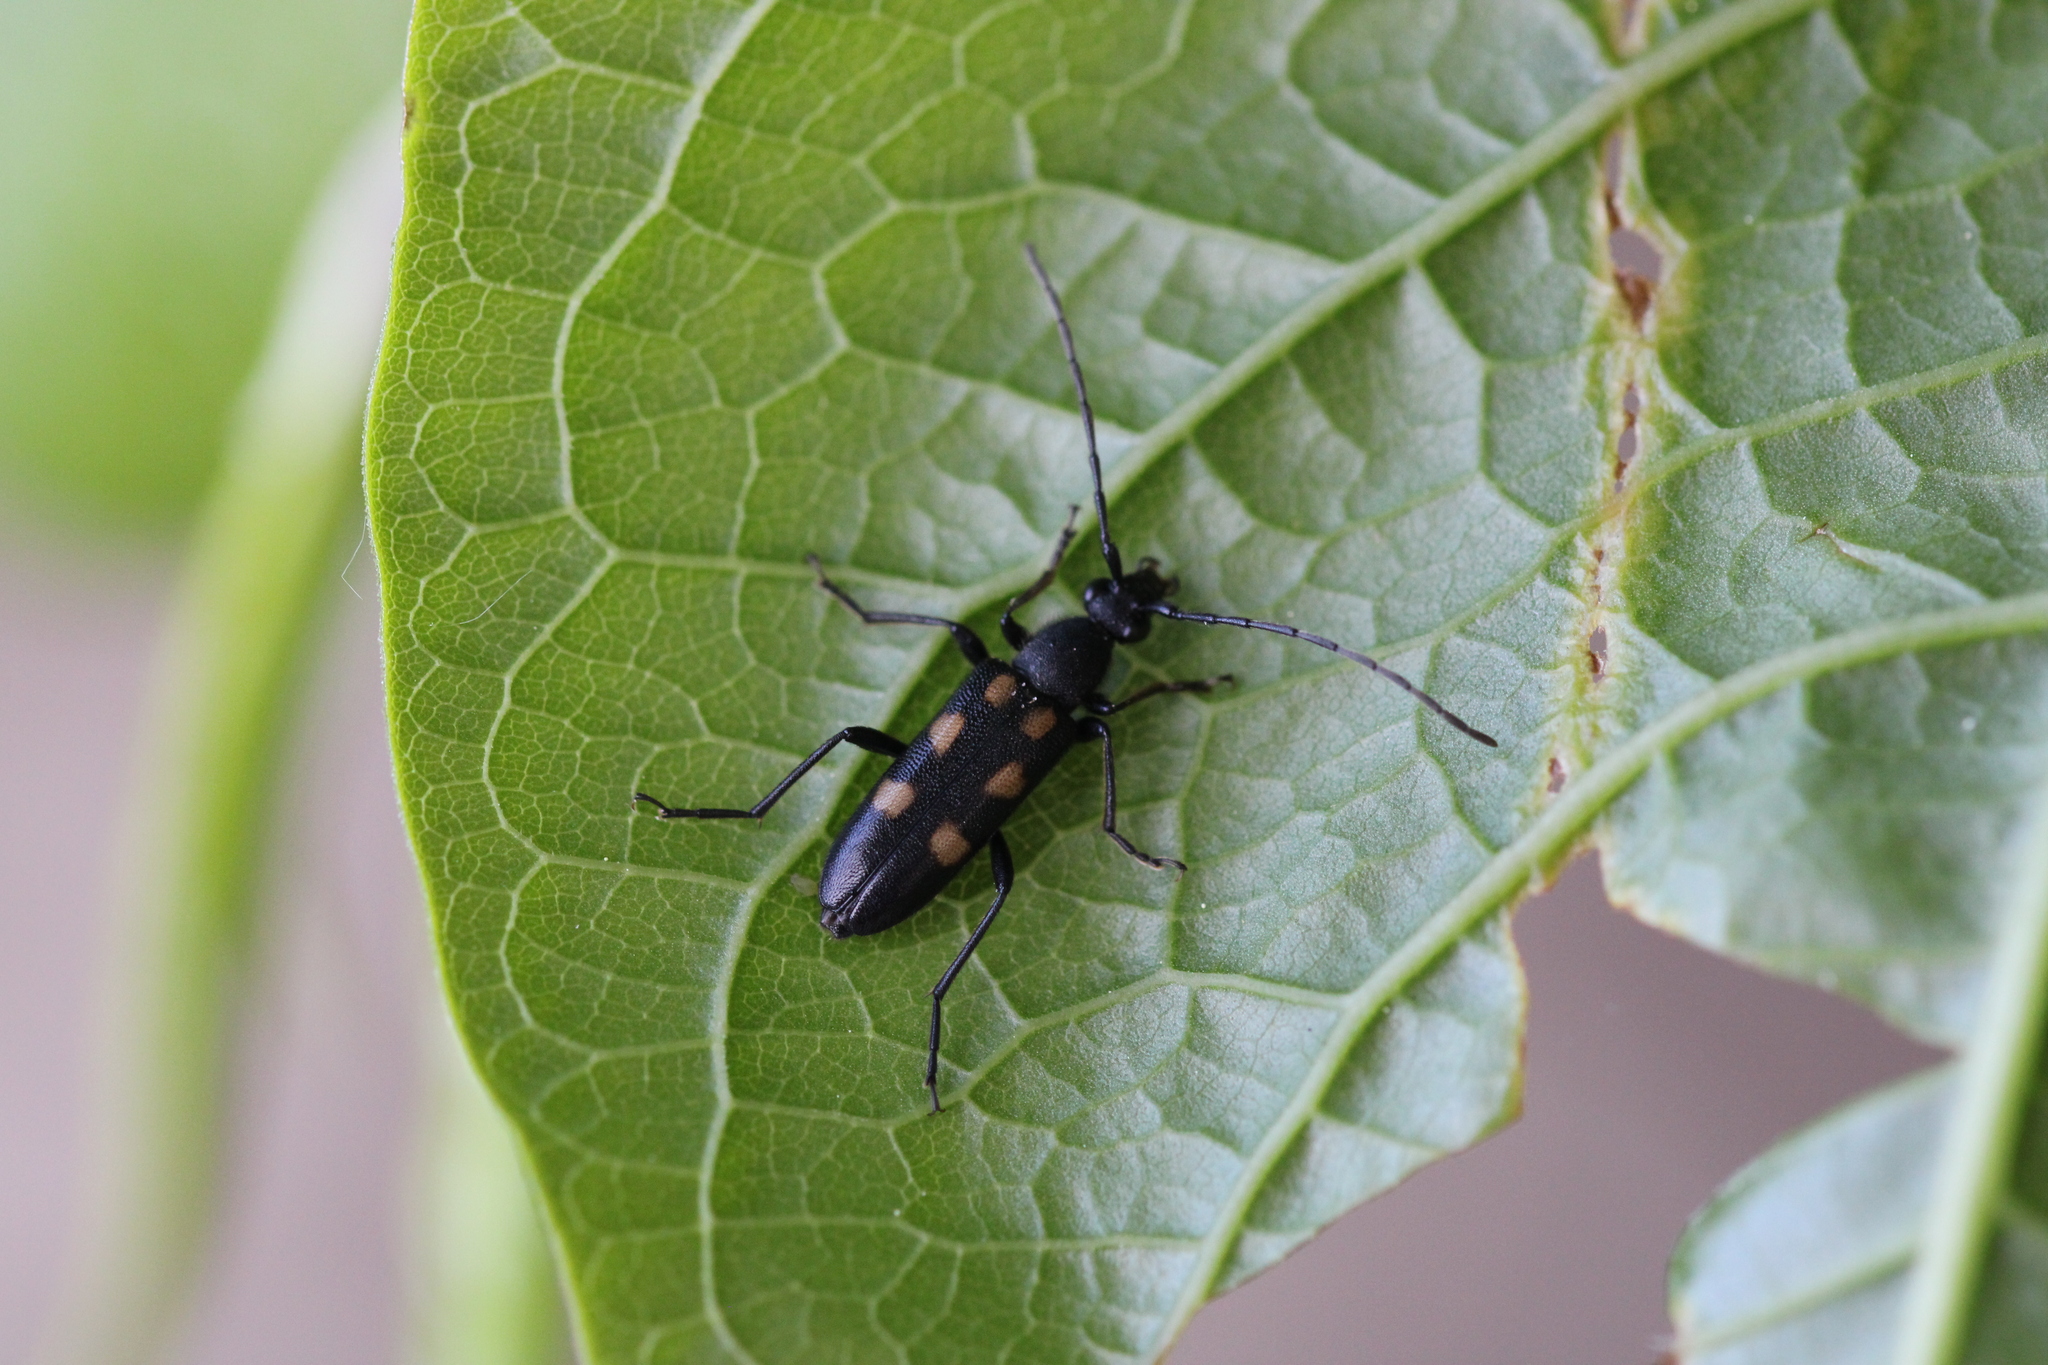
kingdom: Animalia
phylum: Arthropoda
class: Insecta
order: Coleoptera
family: Cerambycidae
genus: Anoplodera
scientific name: Anoplodera sexguttata
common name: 6 spotted longhorn
